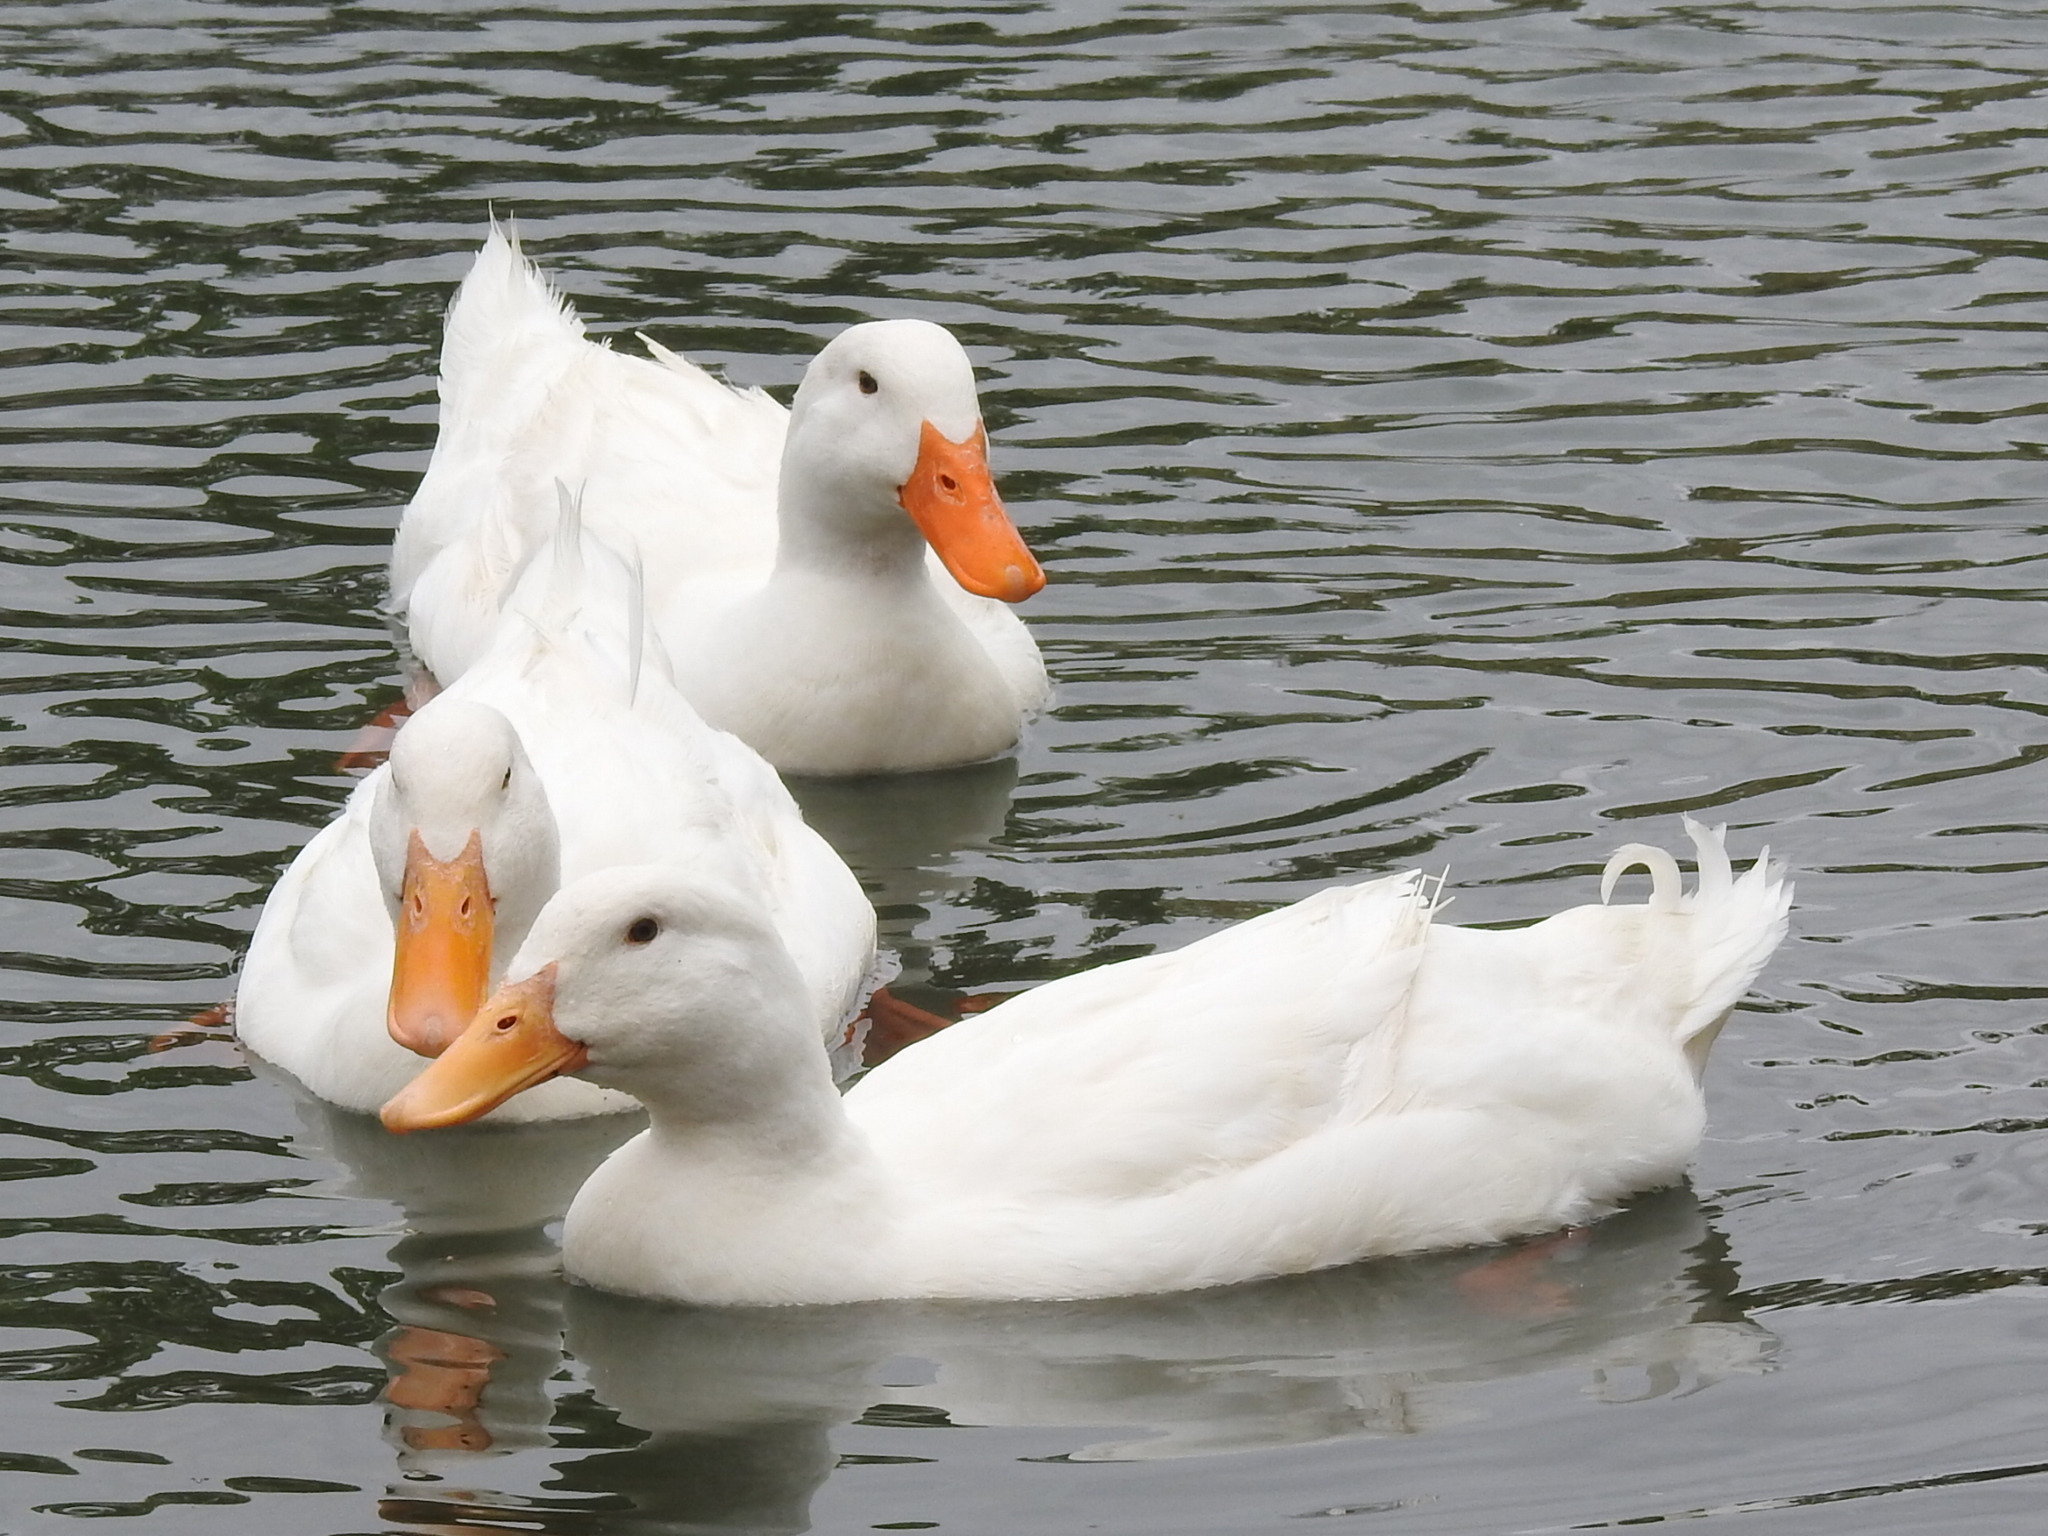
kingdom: Animalia
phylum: Chordata
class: Aves
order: Anseriformes
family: Anatidae
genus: Anas
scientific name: Anas platyrhynchos
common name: Mallard
